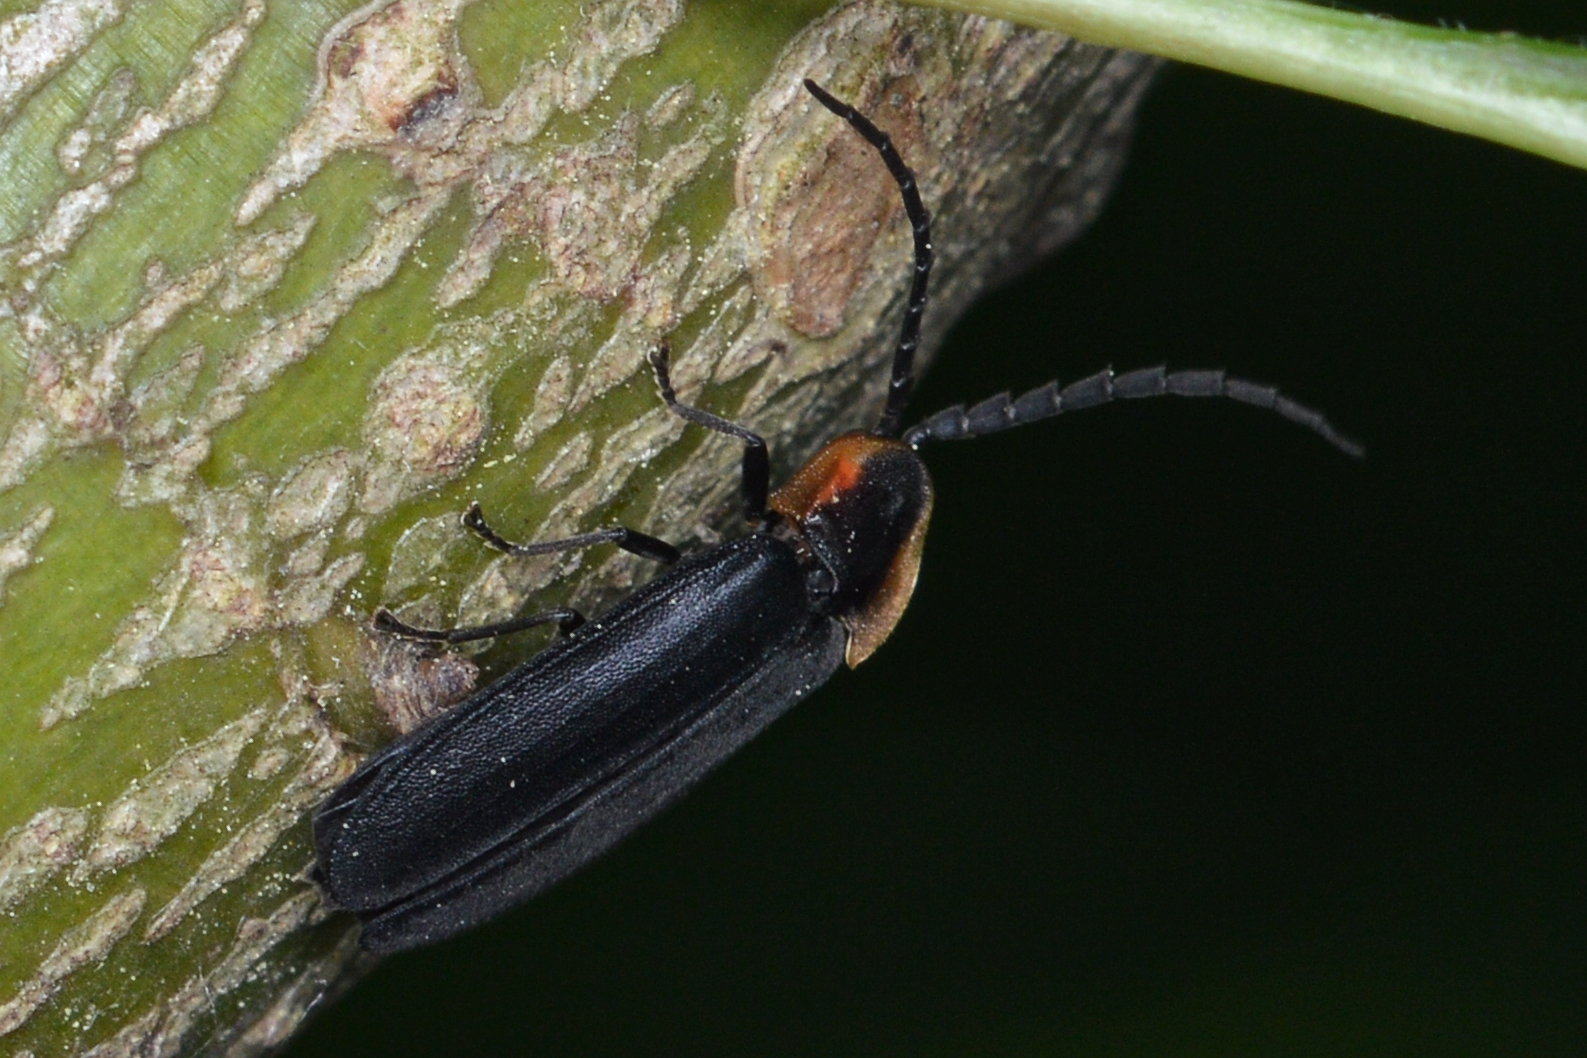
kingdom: Animalia
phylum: Arthropoda
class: Insecta
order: Coleoptera
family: Lampyridae
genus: Lucidota
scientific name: Lucidota atra
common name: Black firefly
